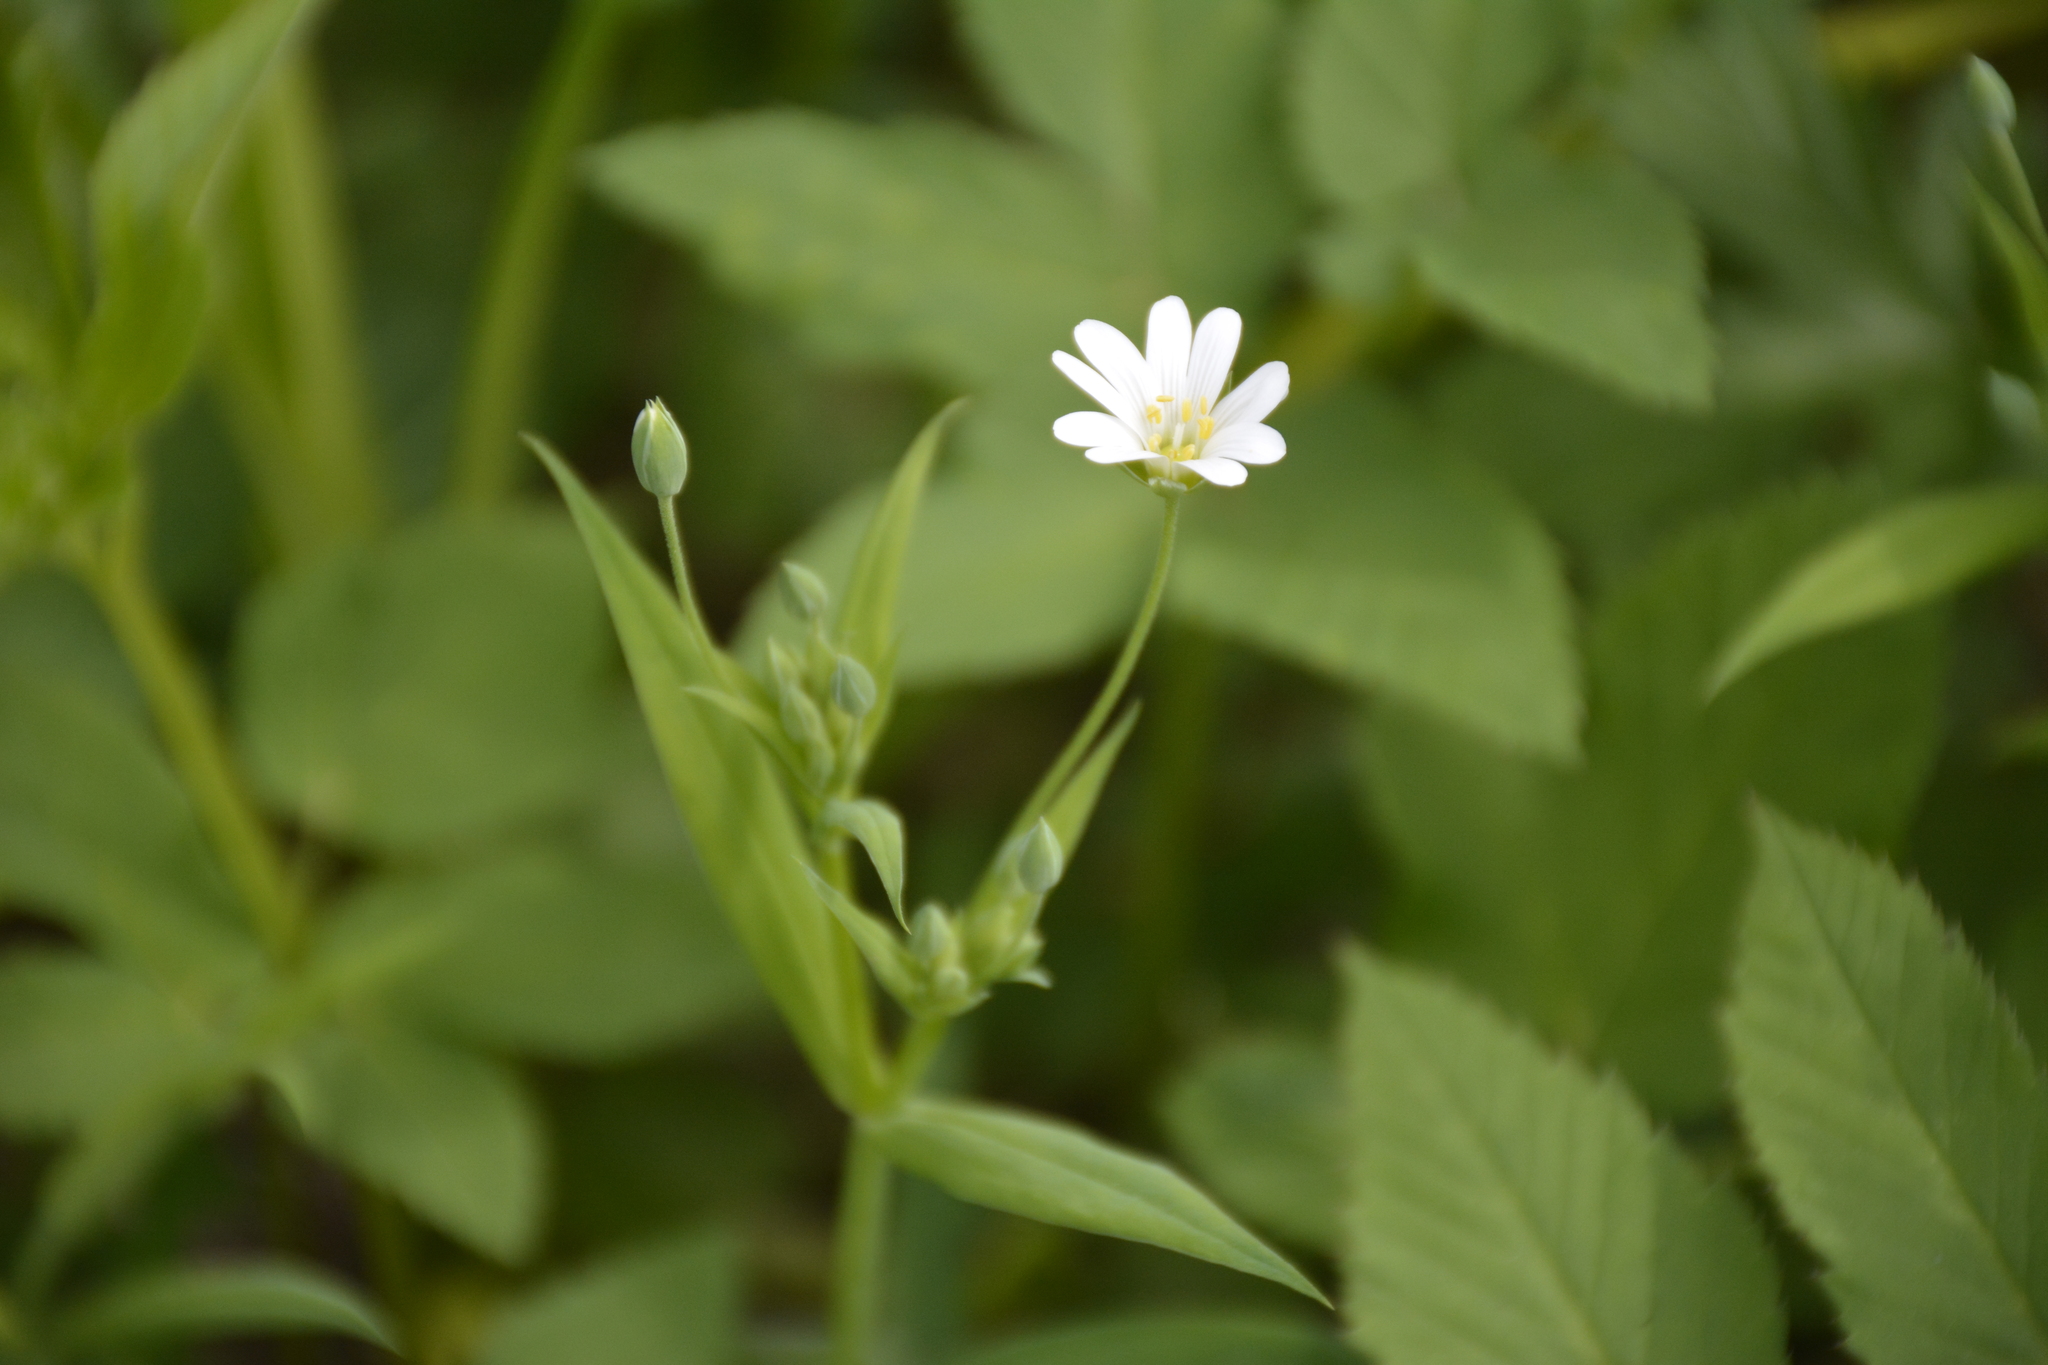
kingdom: Plantae
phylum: Tracheophyta
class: Magnoliopsida
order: Caryophyllales
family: Caryophyllaceae
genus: Rabelera
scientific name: Rabelera holostea
